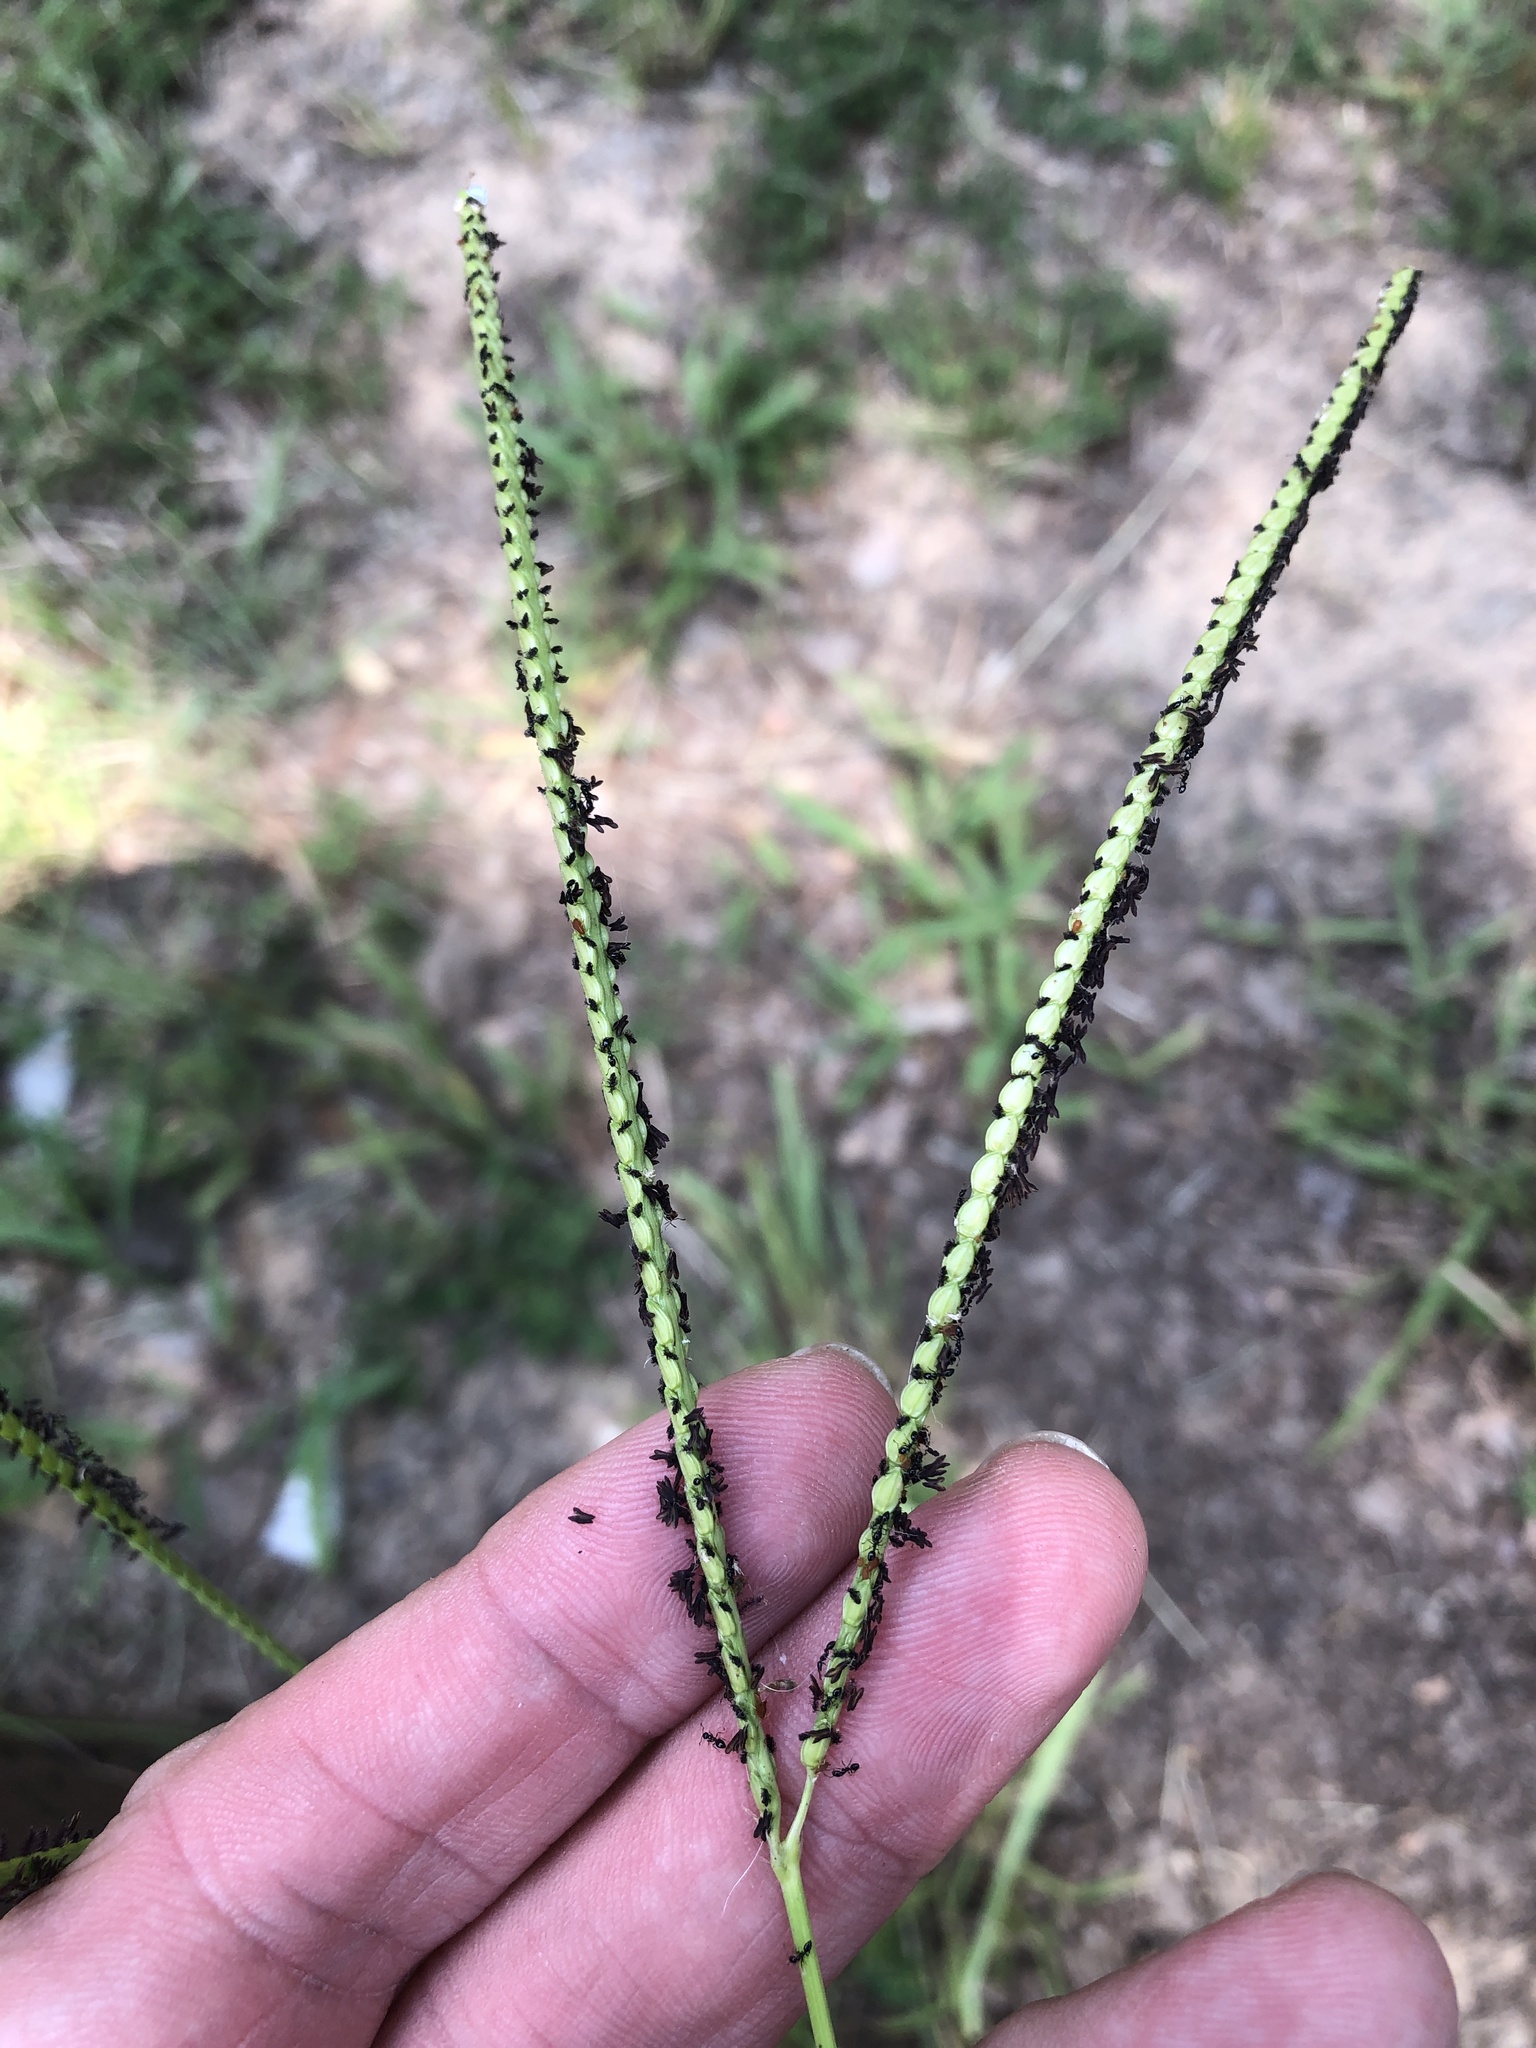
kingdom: Plantae
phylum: Tracheophyta
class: Liliopsida
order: Poales
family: Poaceae
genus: Paspalum
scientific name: Paspalum notatum
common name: Bahiagrass
